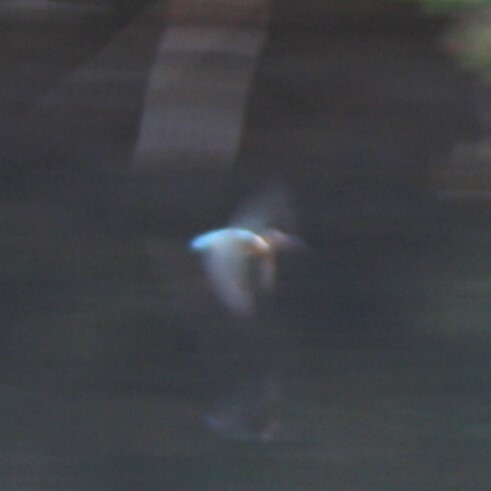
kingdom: Animalia
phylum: Chordata
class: Aves
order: Coraciiformes
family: Alcedinidae
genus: Alcedo
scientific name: Alcedo atthis
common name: Common kingfisher
